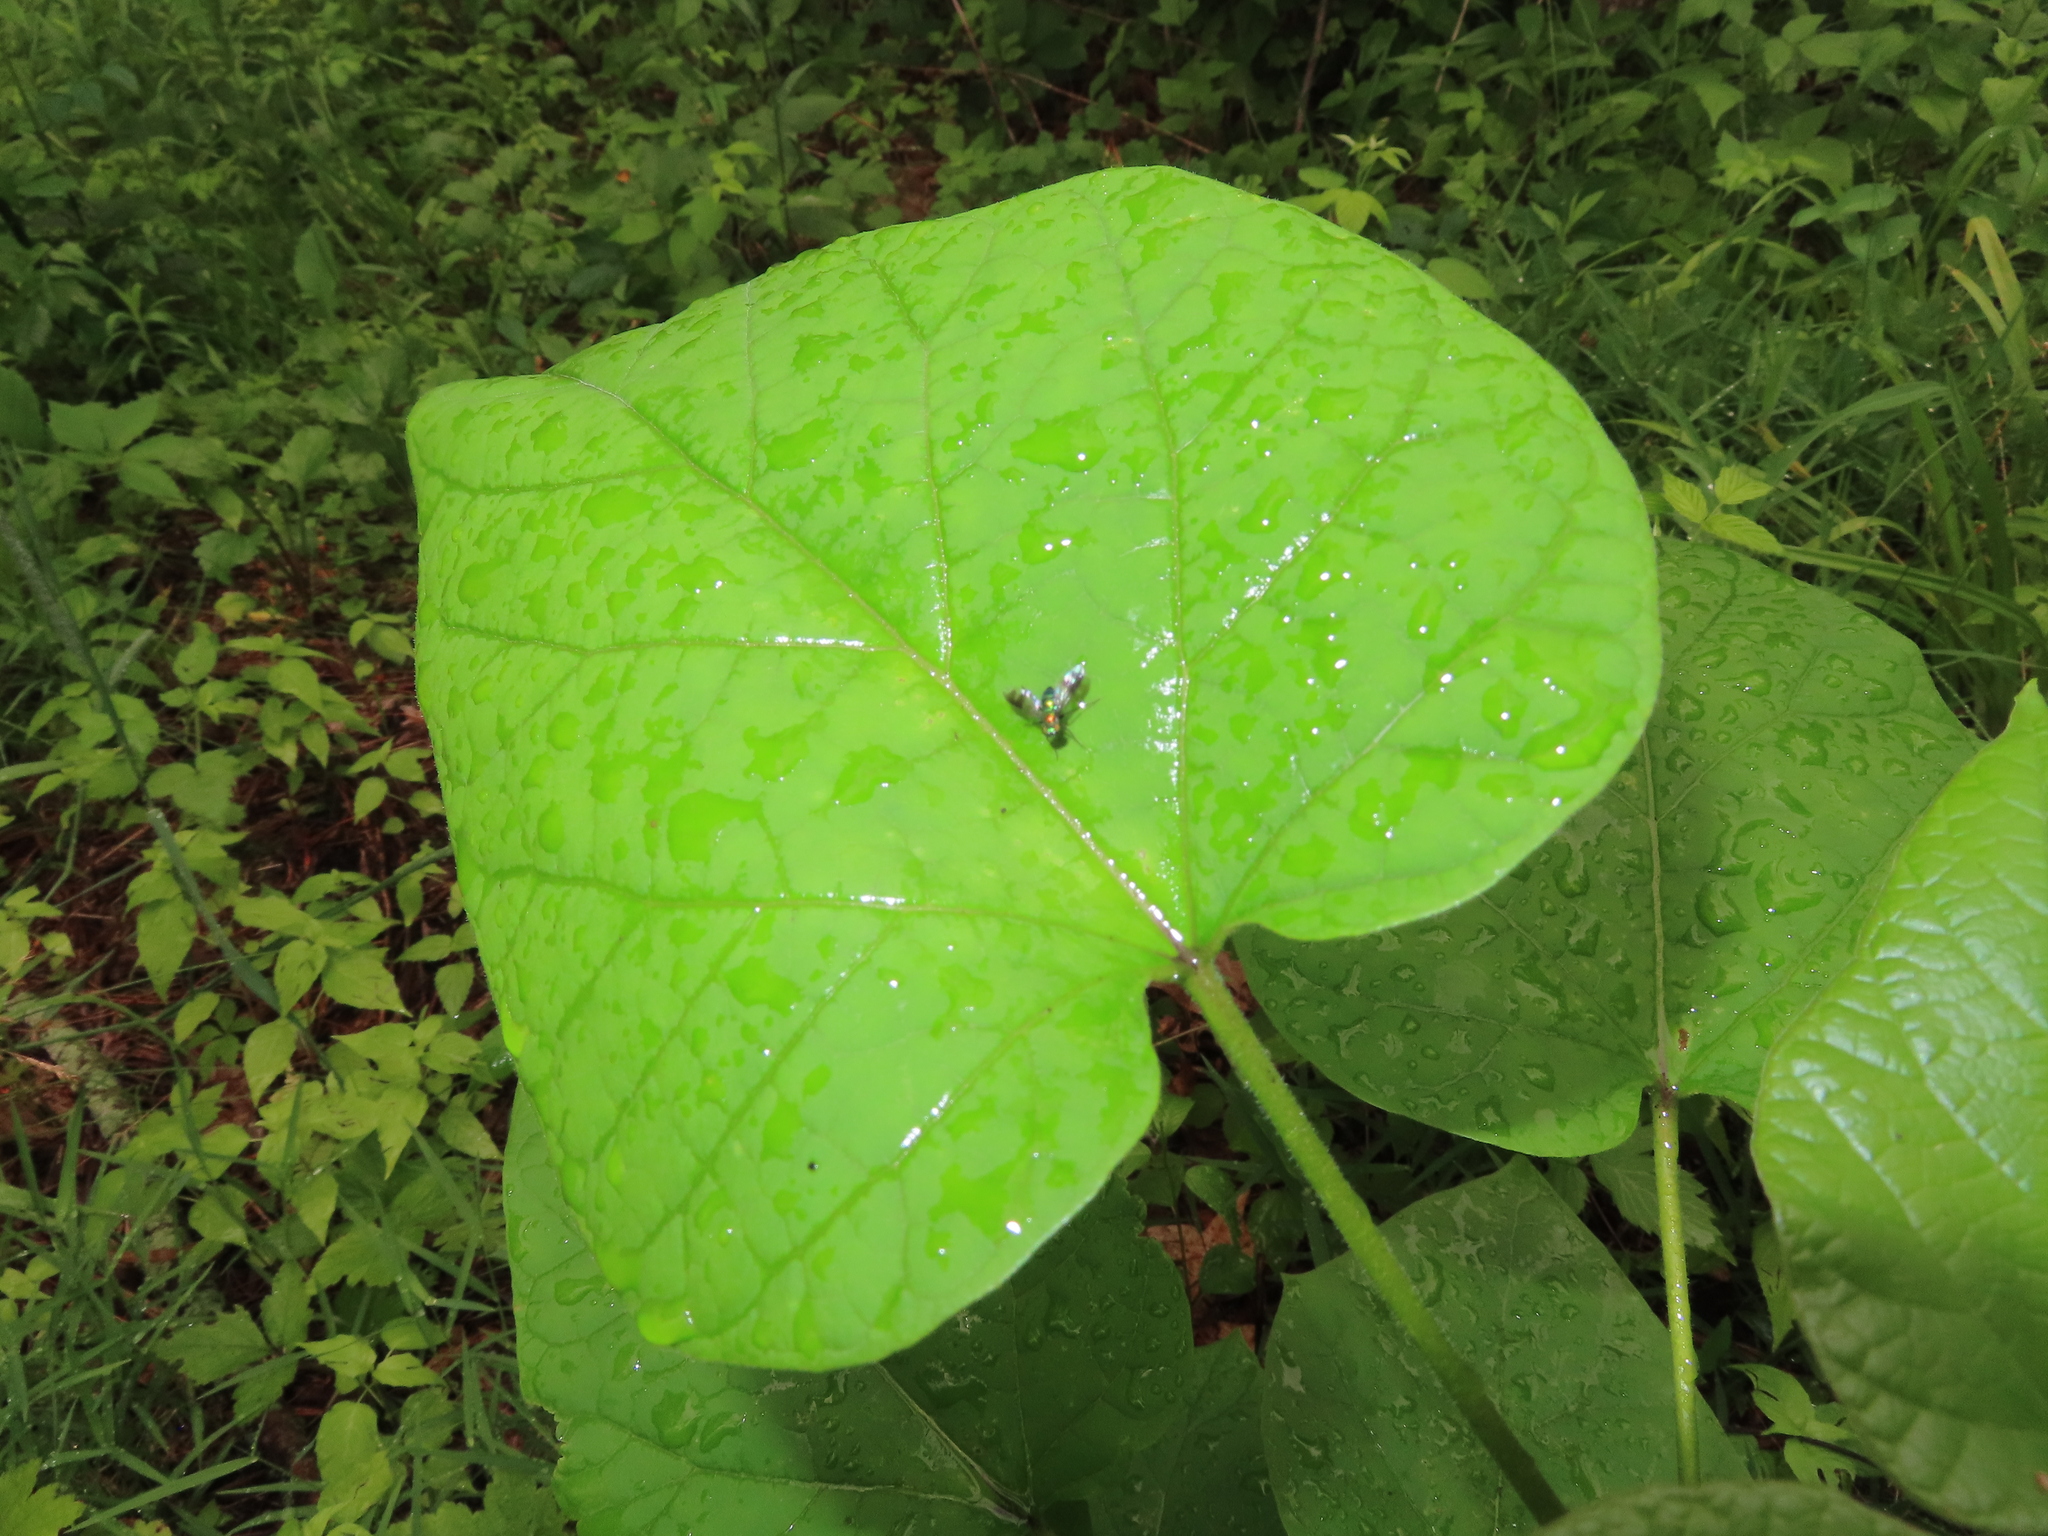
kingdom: Plantae
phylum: Tracheophyta
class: Magnoliopsida
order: Lamiales
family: Bignoniaceae
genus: Catalpa
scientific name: Catalpa speciosa
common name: Northern catalpa
